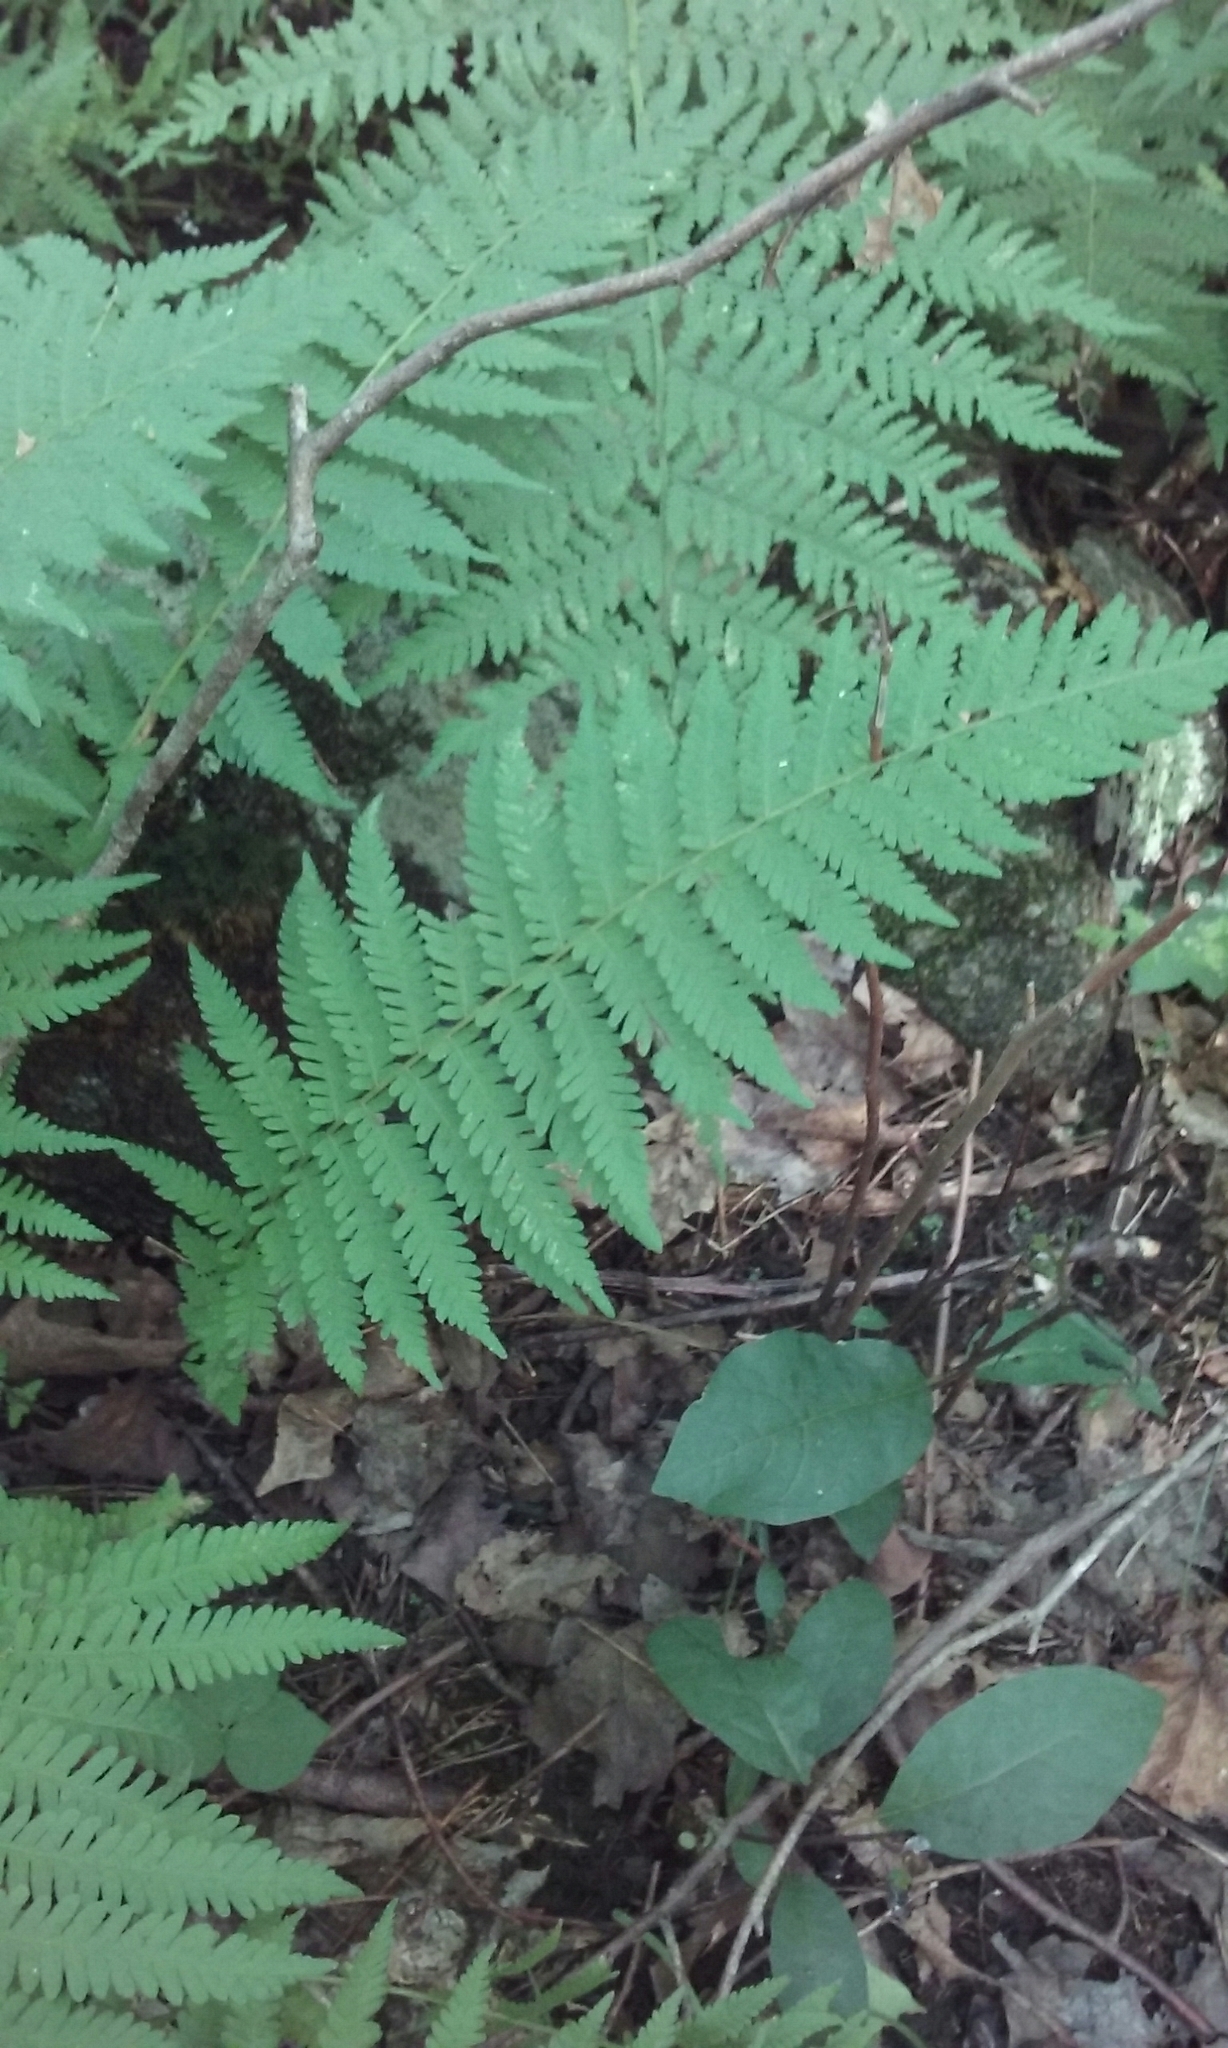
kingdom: Plantae
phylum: Tracheophyta
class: Polypodiopsida
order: Polypodiales
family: Thelypteridaceae
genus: Amauropelta
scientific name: Amauropelta noveboracensis
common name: New york fern
